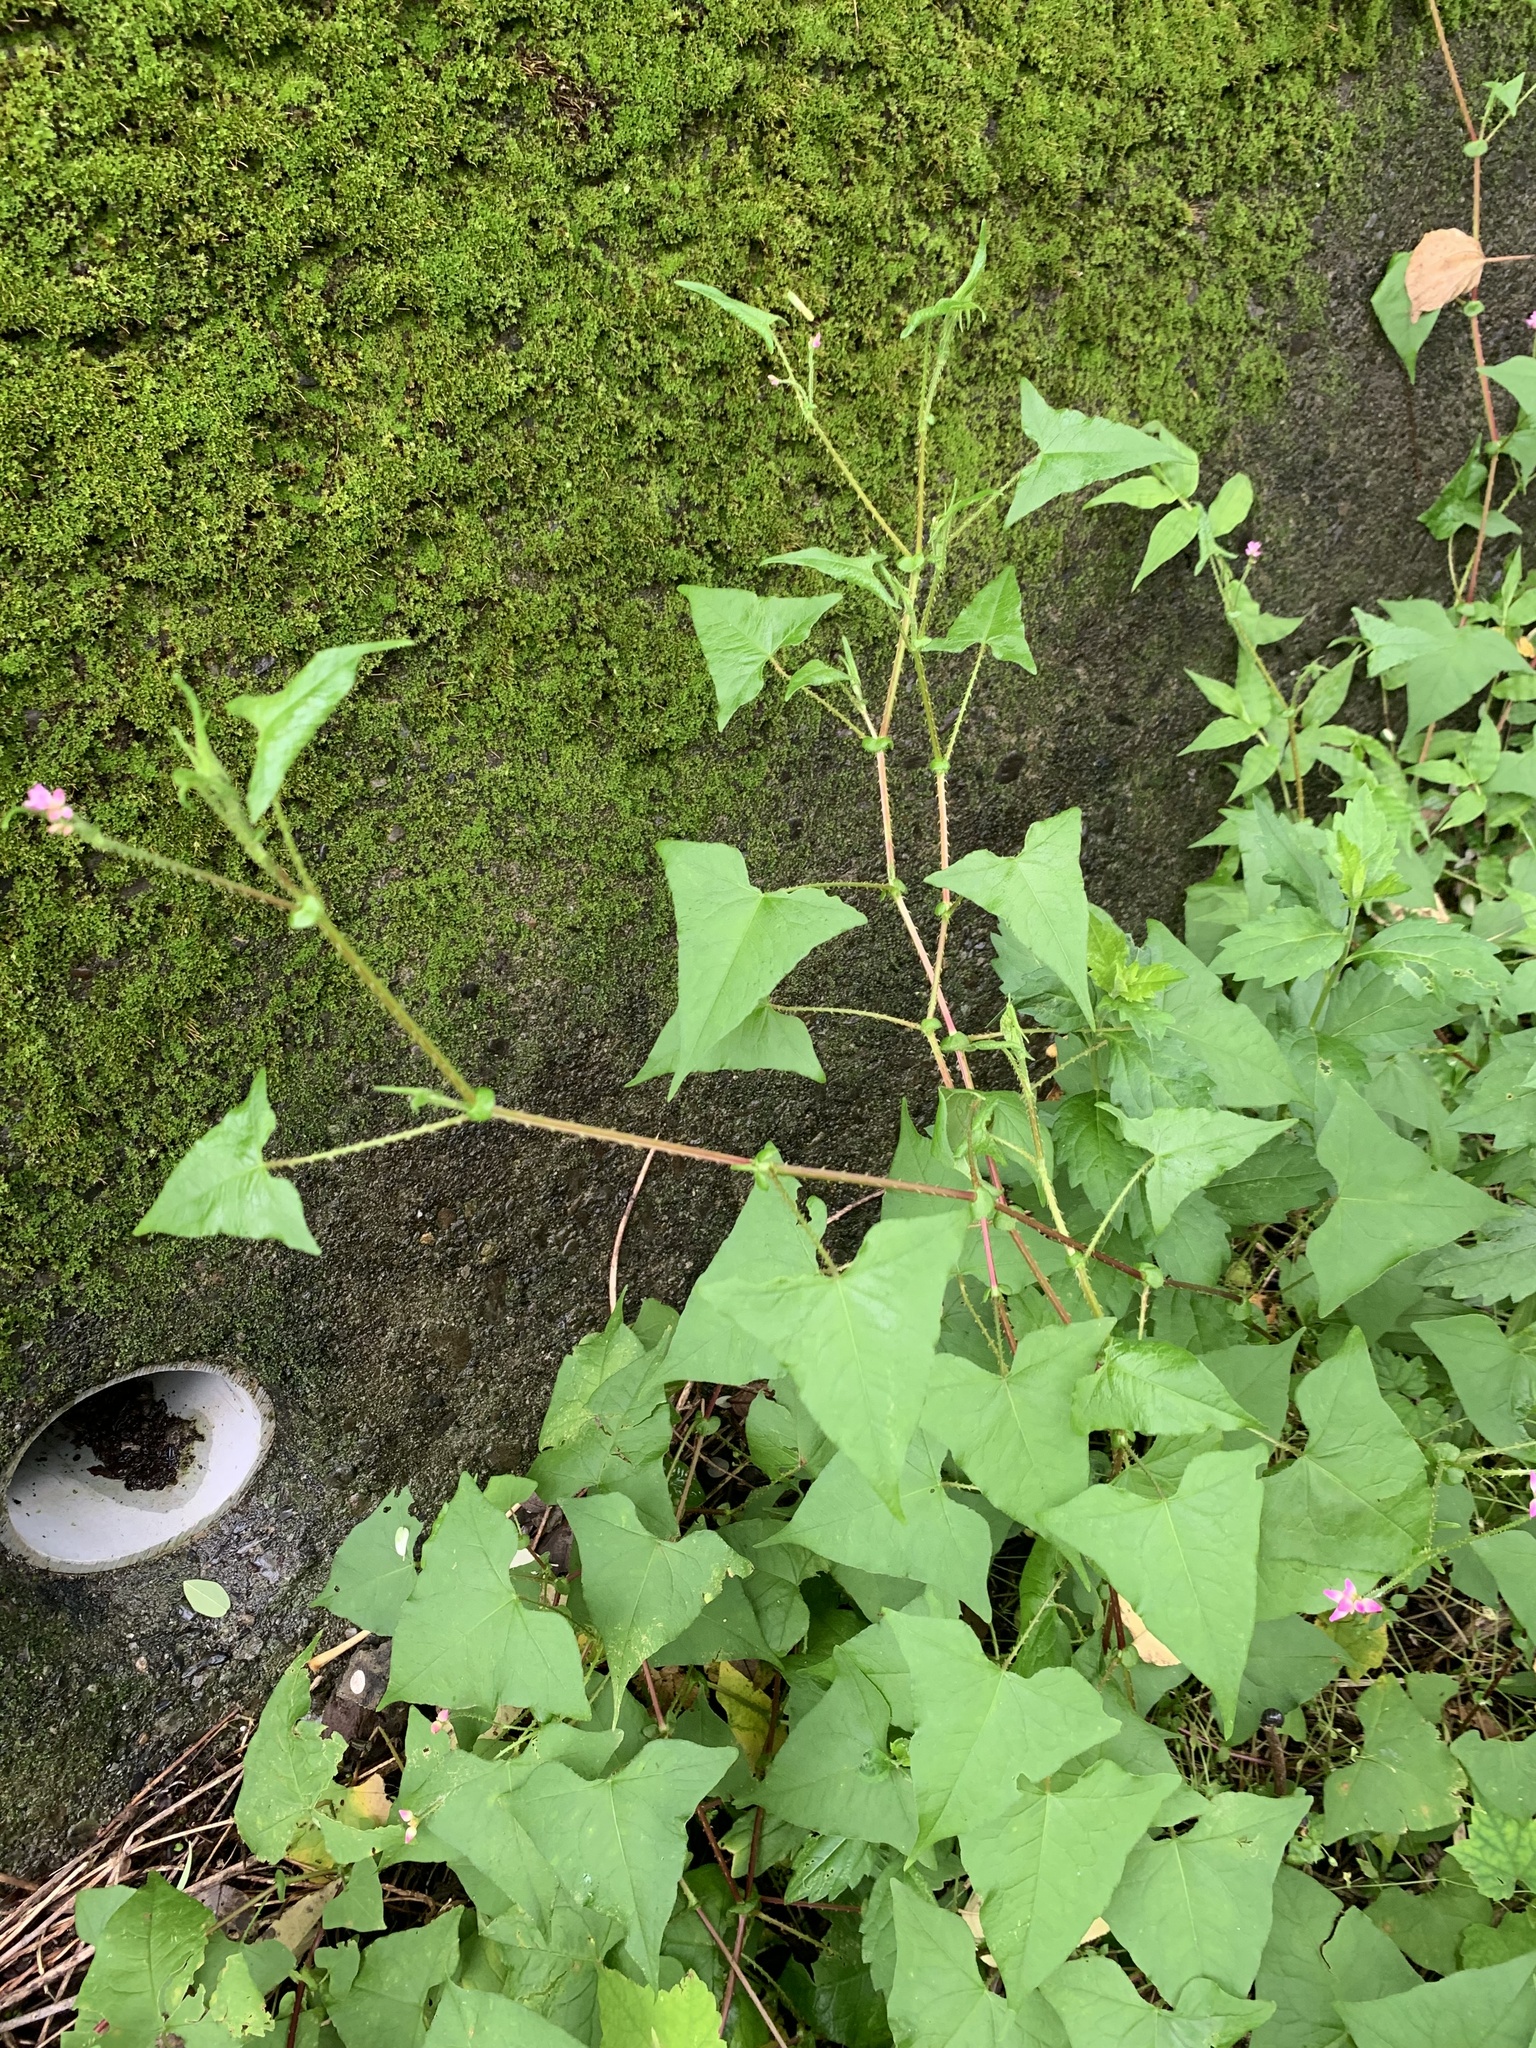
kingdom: Plantae
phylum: Tracheophyta
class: Magnoliopsida
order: Caryophyllales
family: Polygonaceae
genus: Persicaria
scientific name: Persicaria senticosa
